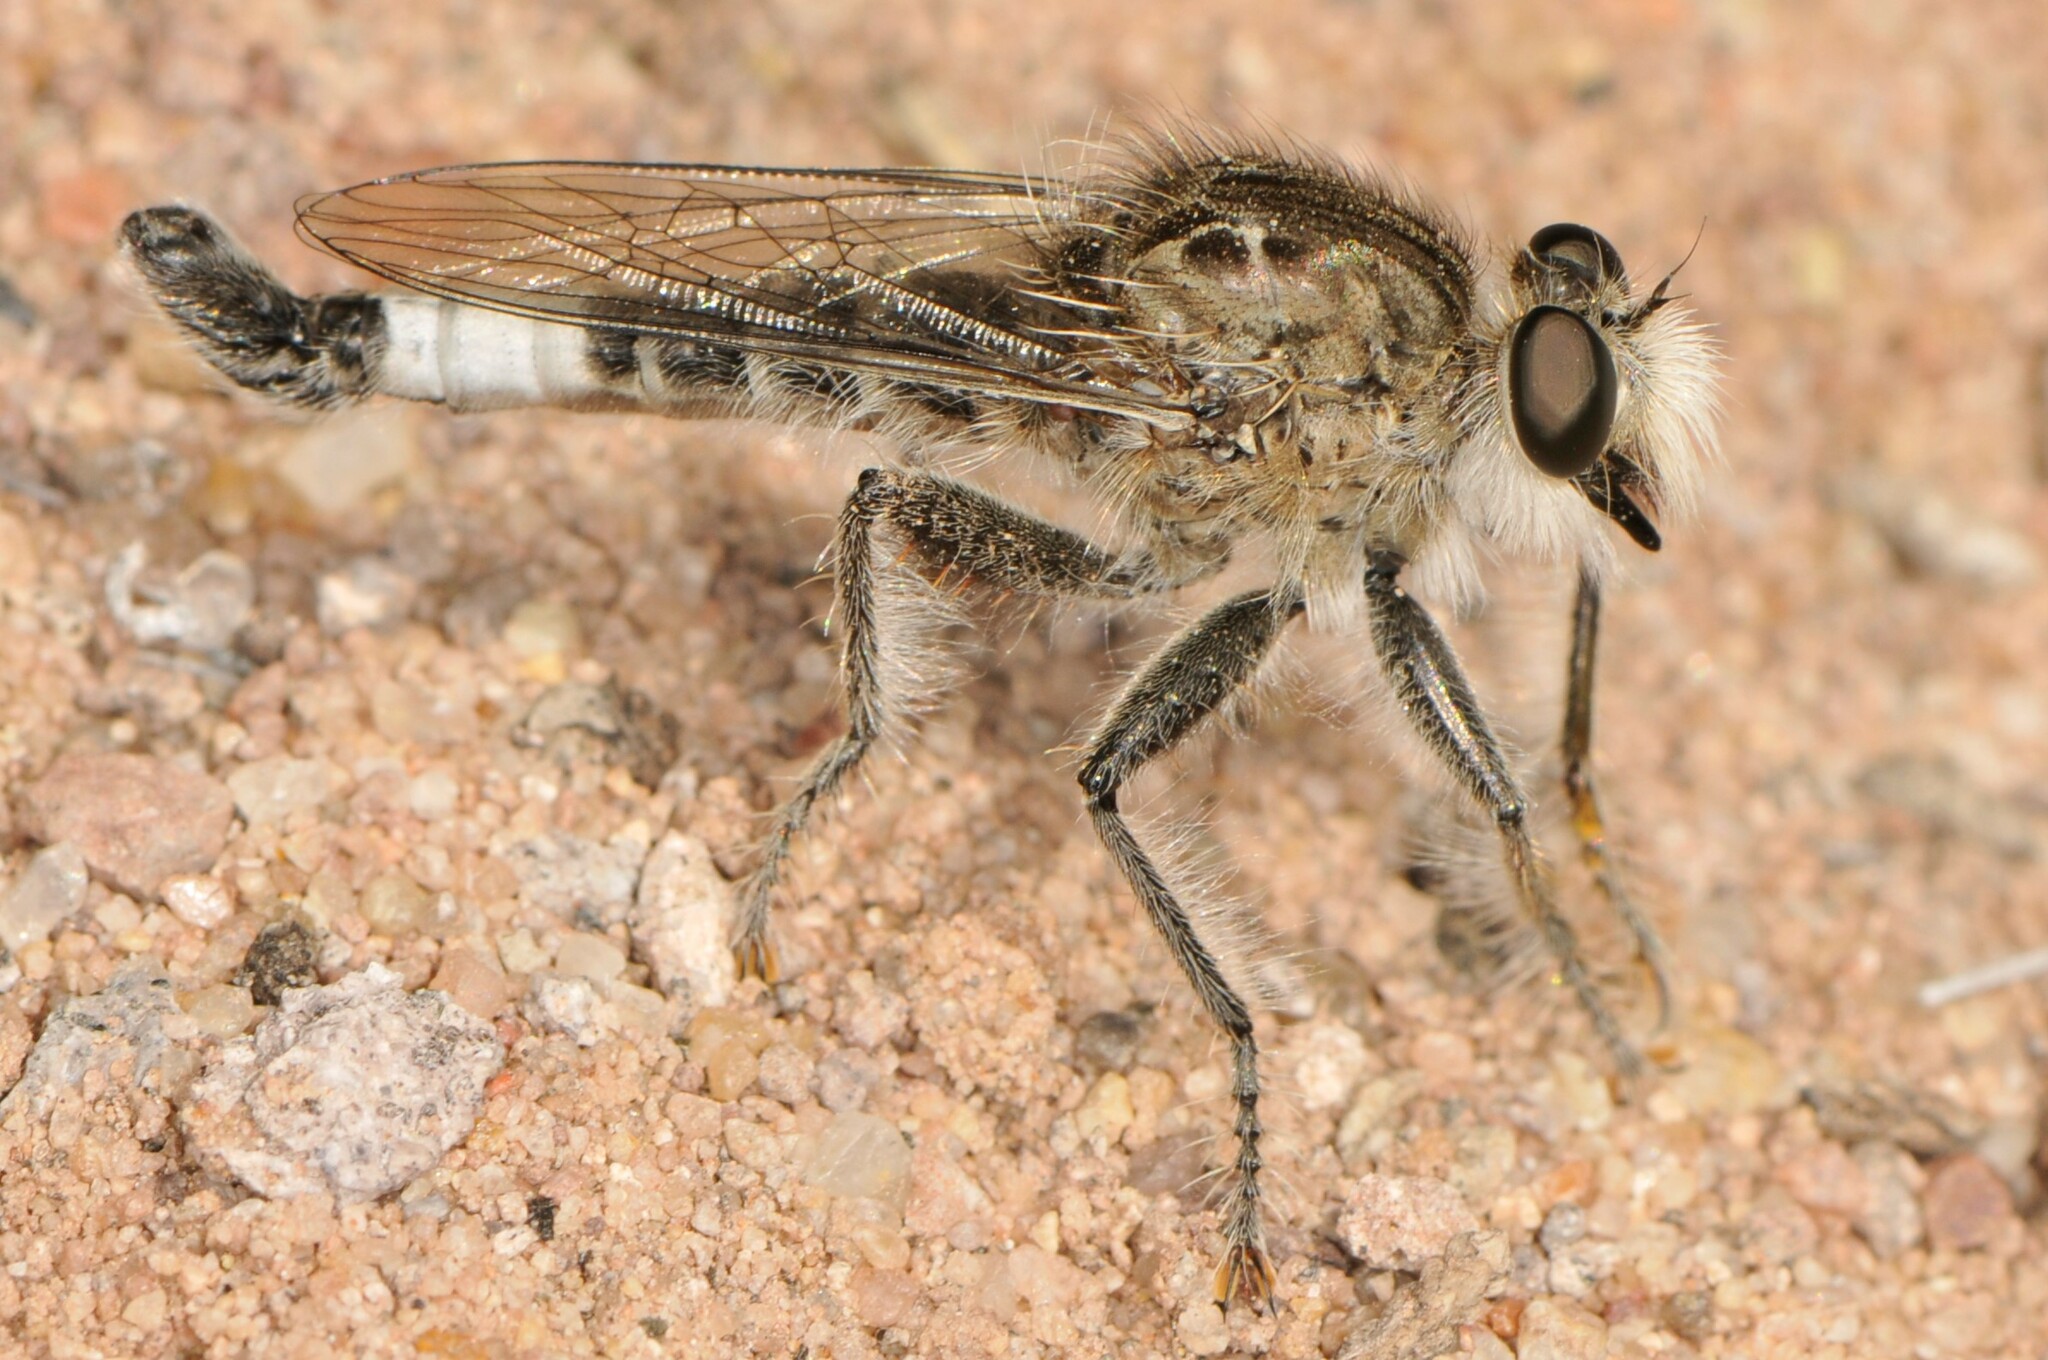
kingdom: Animalia
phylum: Arthropoda
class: Insecta
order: Diptera
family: Asilidae
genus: Efferia
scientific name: Efferia
